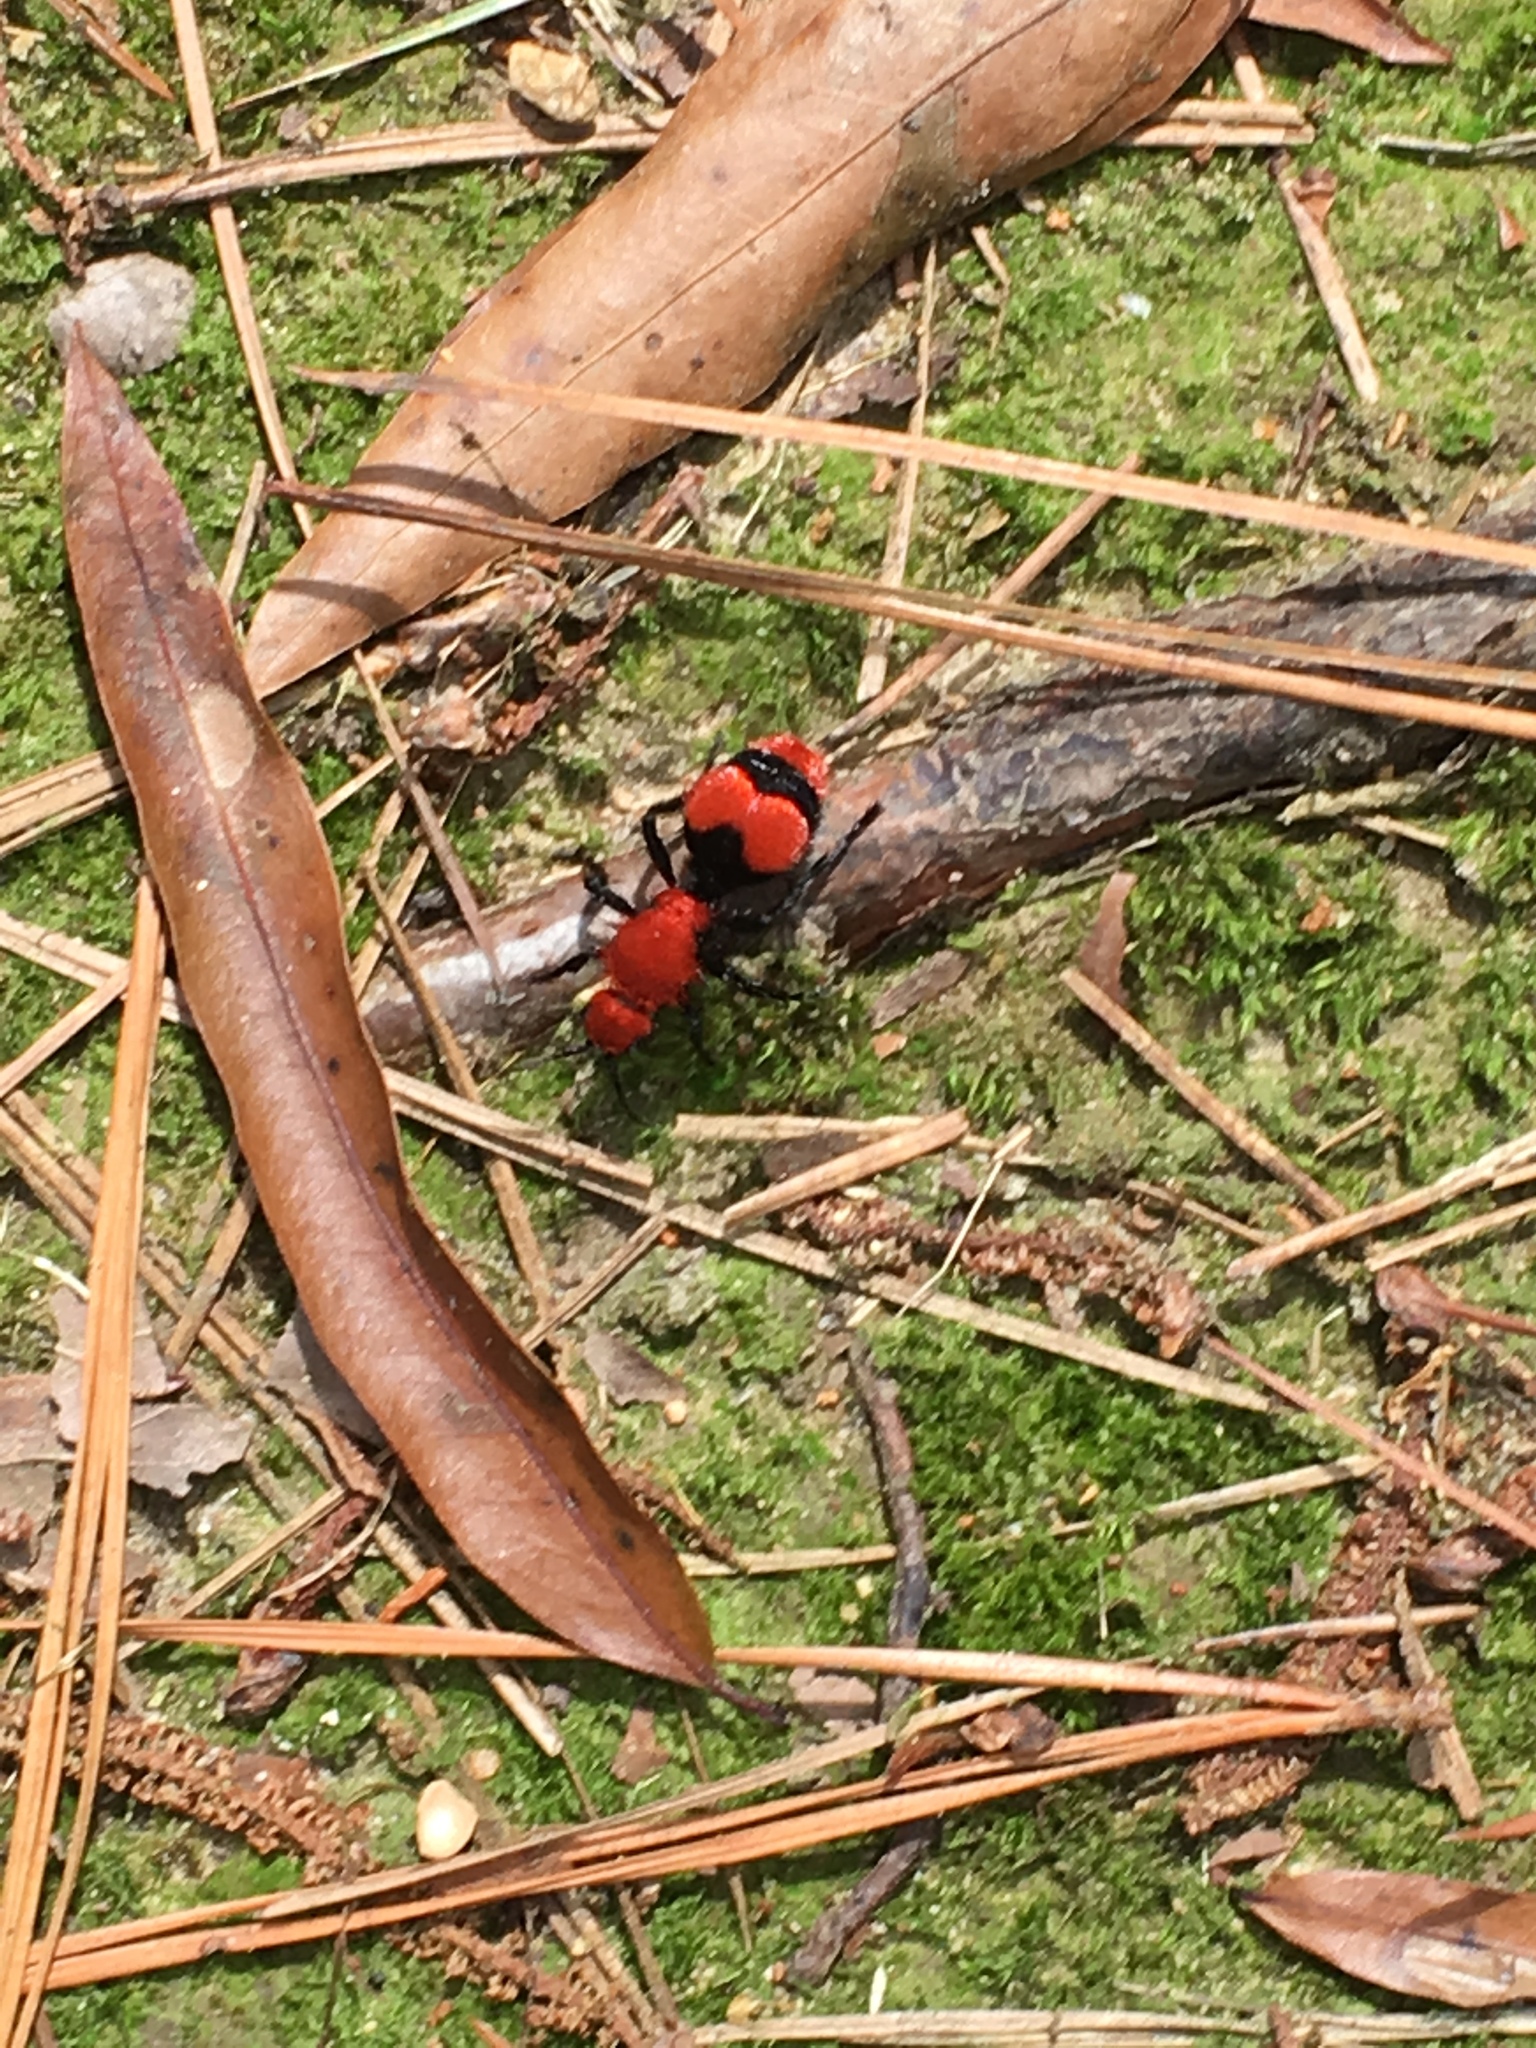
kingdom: Animalia
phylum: Arthropoda
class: Insecta
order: Hymenoptera
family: Mutillidae
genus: Dasymutilla
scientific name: Dasymutilla occidentalis
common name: Common eastern velvet ant
